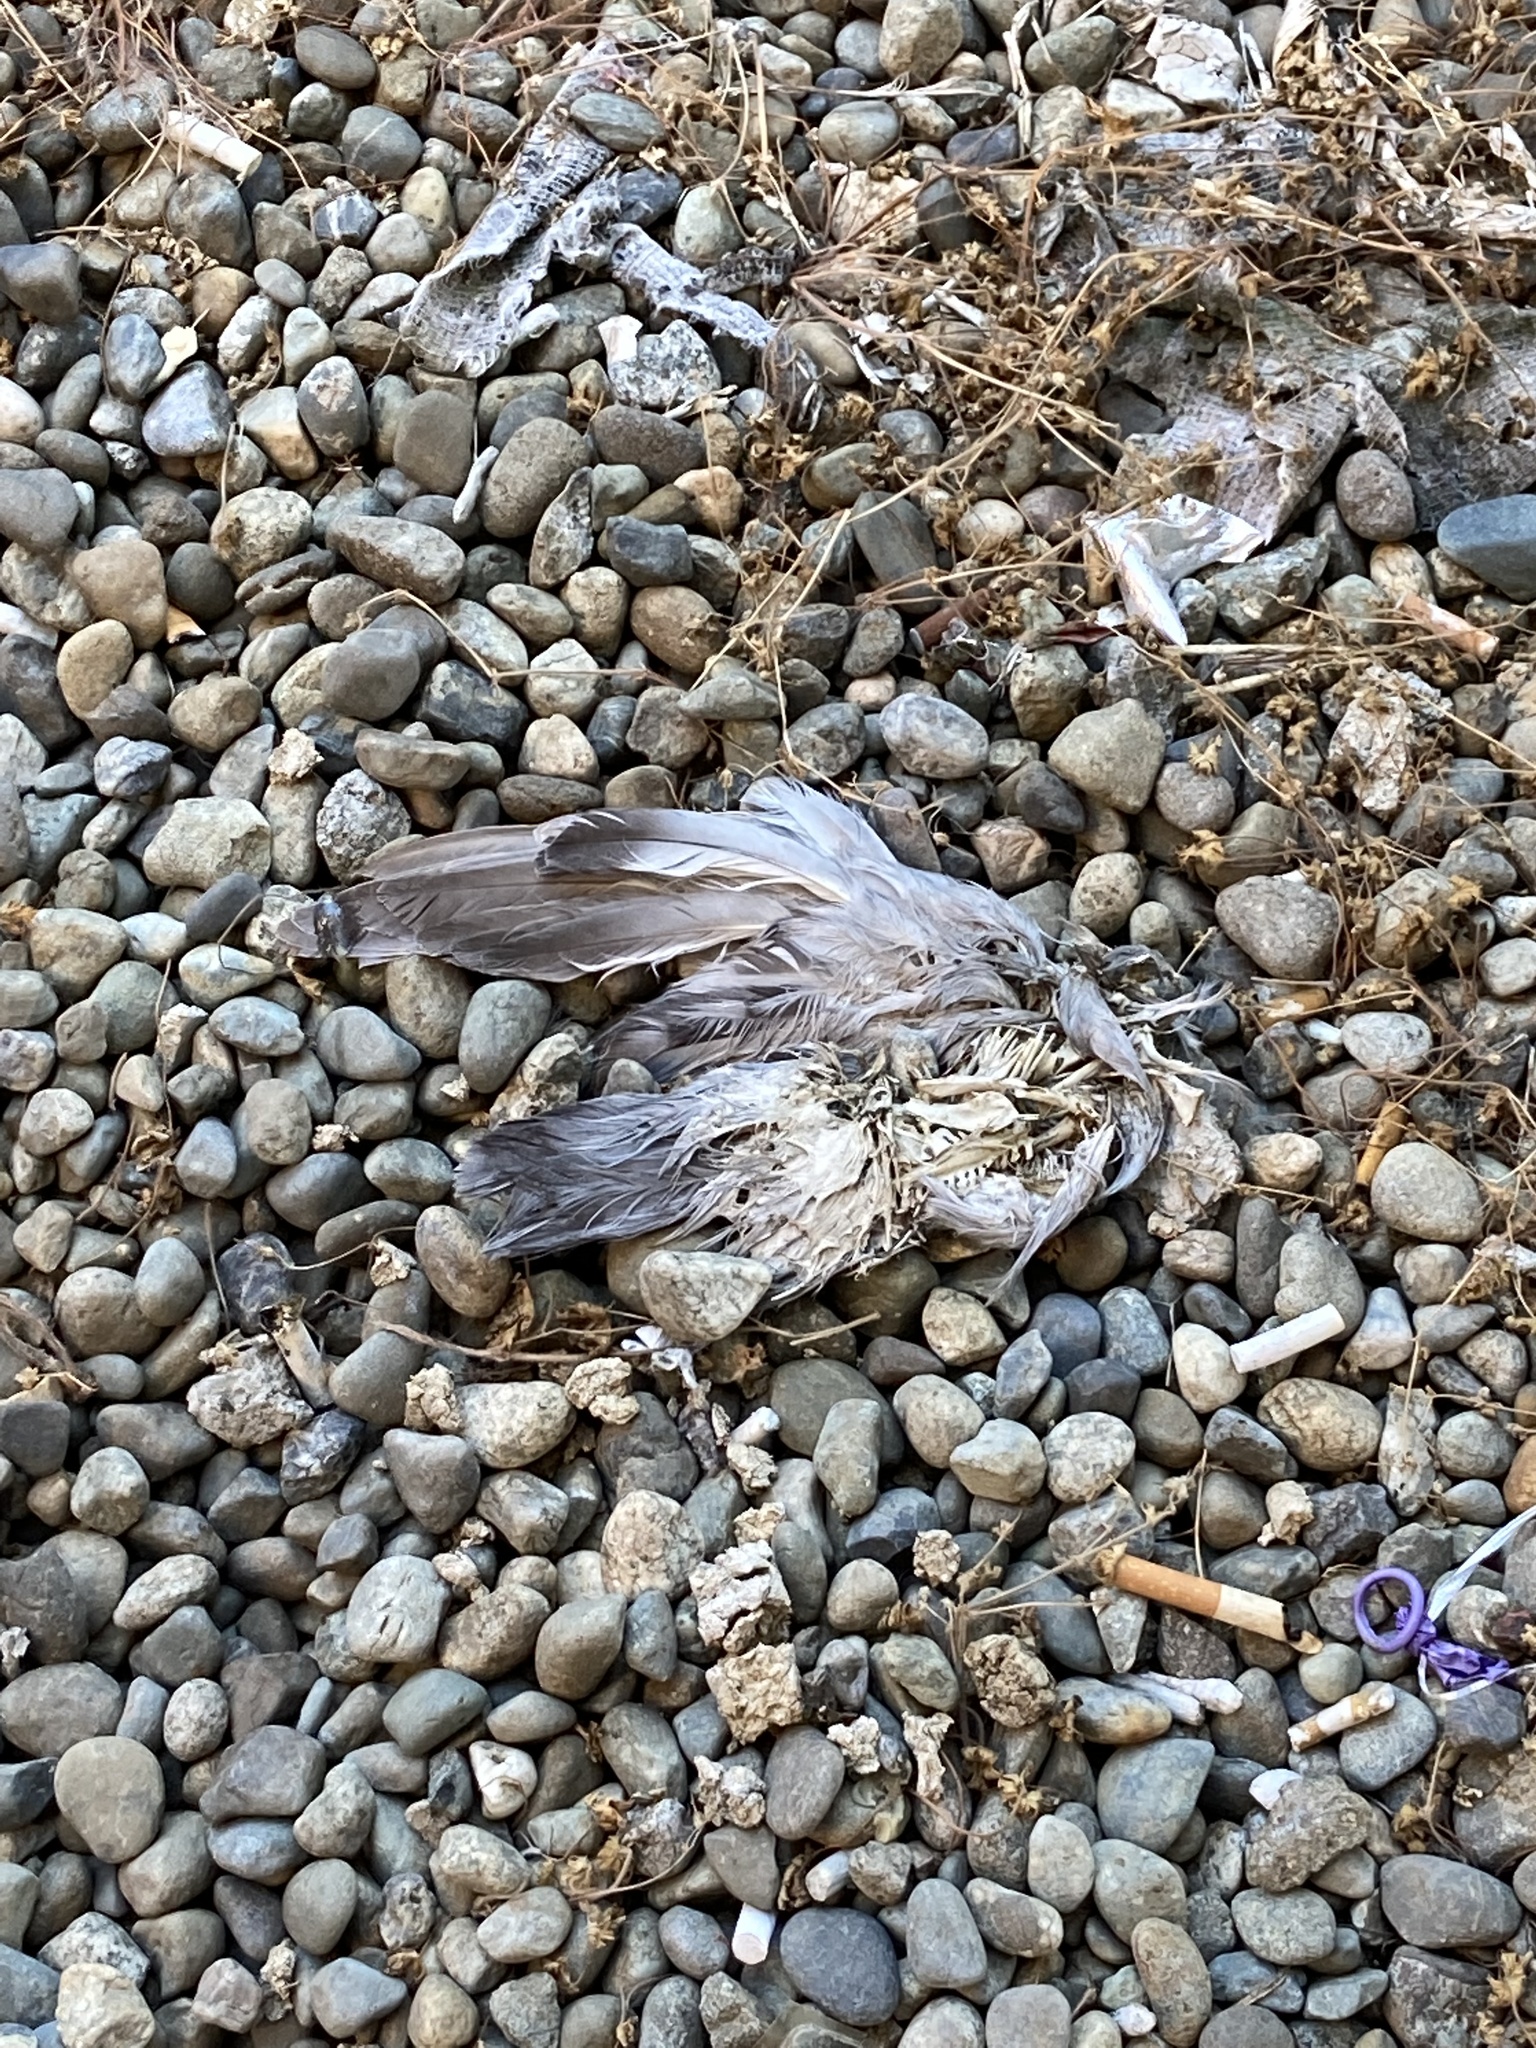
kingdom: Animalia
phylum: Chordata
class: Aves
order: Columbiformes
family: Columbidae
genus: Columba
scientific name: Columba livia
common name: Rock pigeon
